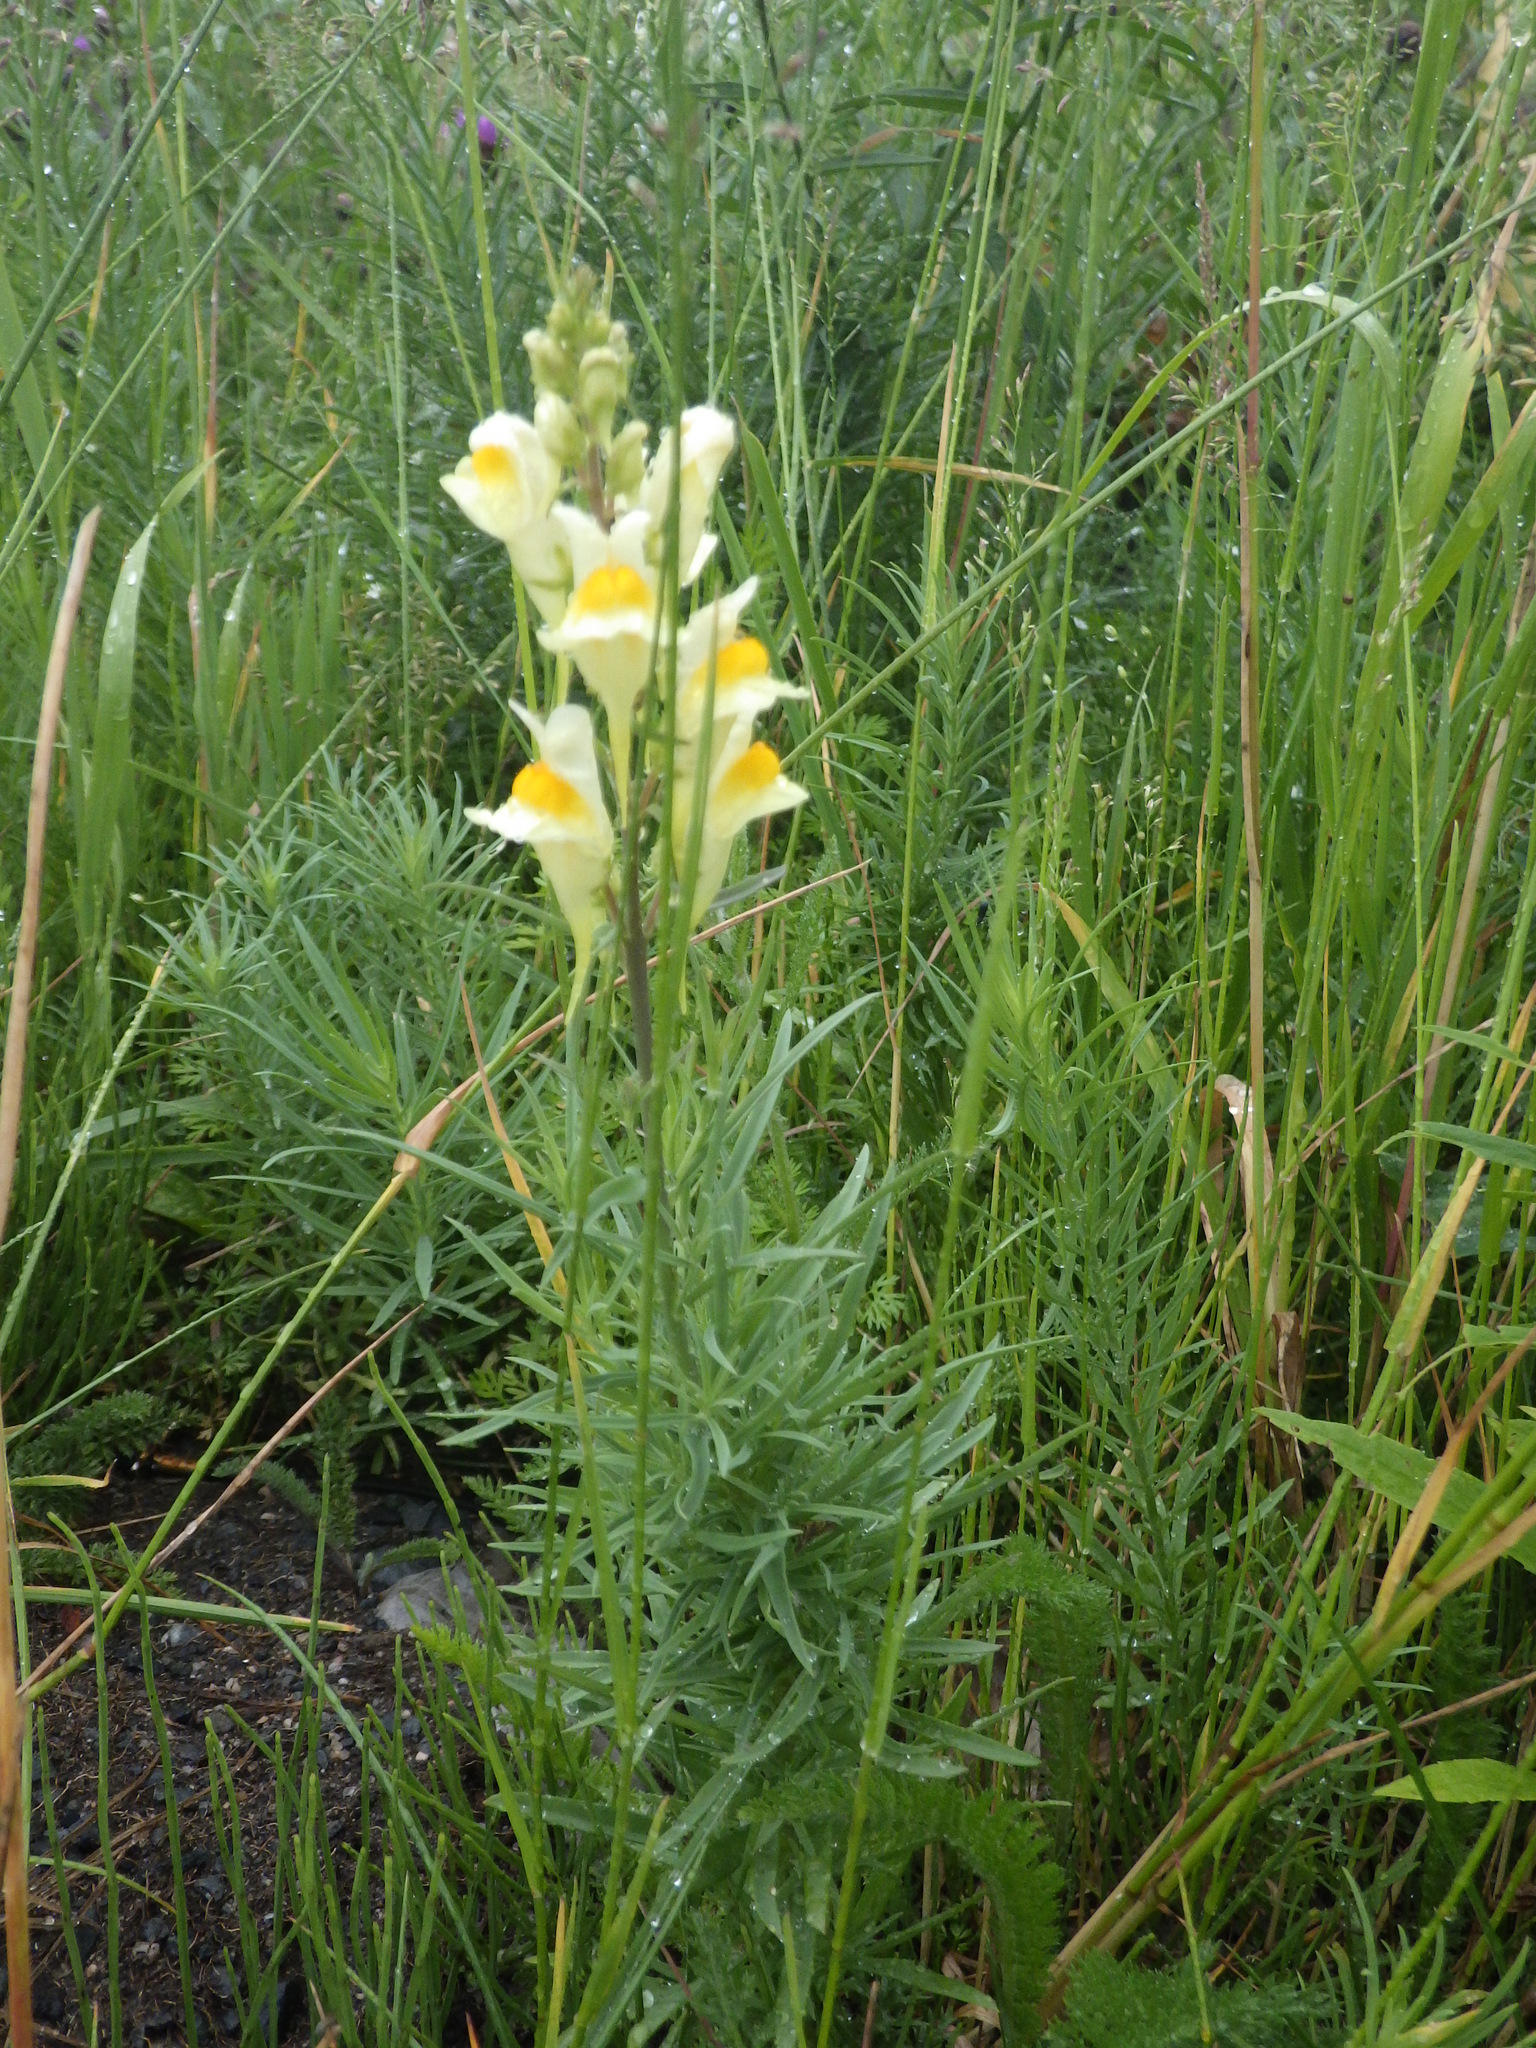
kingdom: Plantae
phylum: Tracheophyta
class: Magnoliopsida
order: Lamiales
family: Plantaginaceae
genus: Linaria
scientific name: Linaria vulgaris
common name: Butter and eggs
